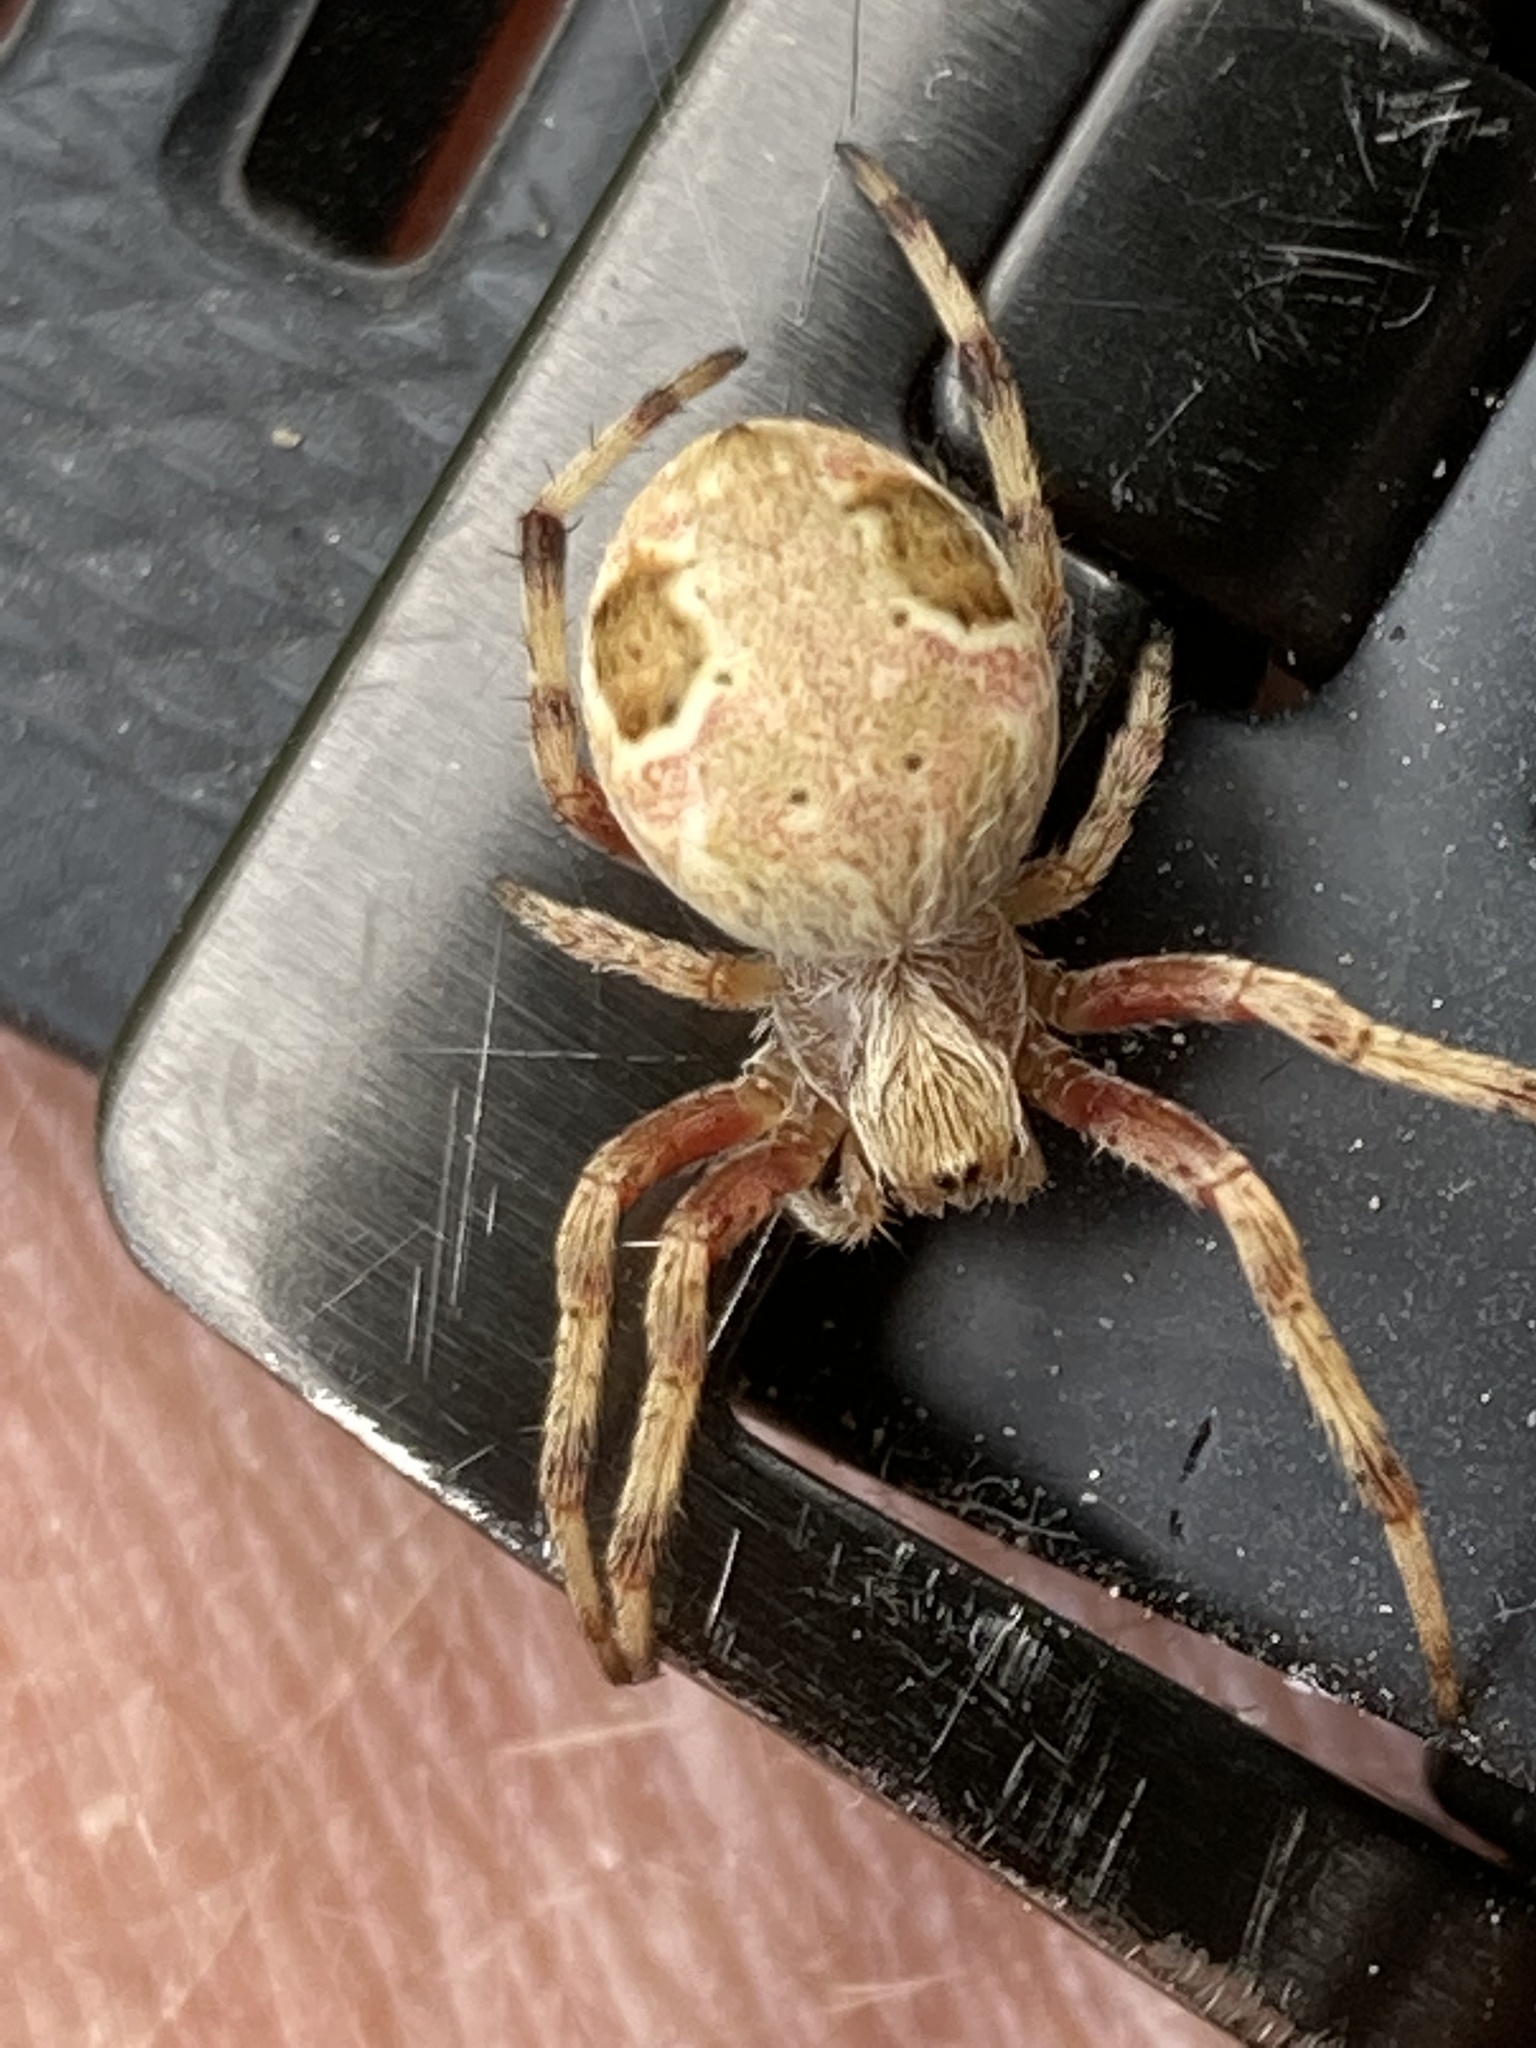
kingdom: Animalia
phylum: Arthropoda
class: Arachnida
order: Araneae
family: Araneidae
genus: Salsa
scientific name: Salsa fuliginata
